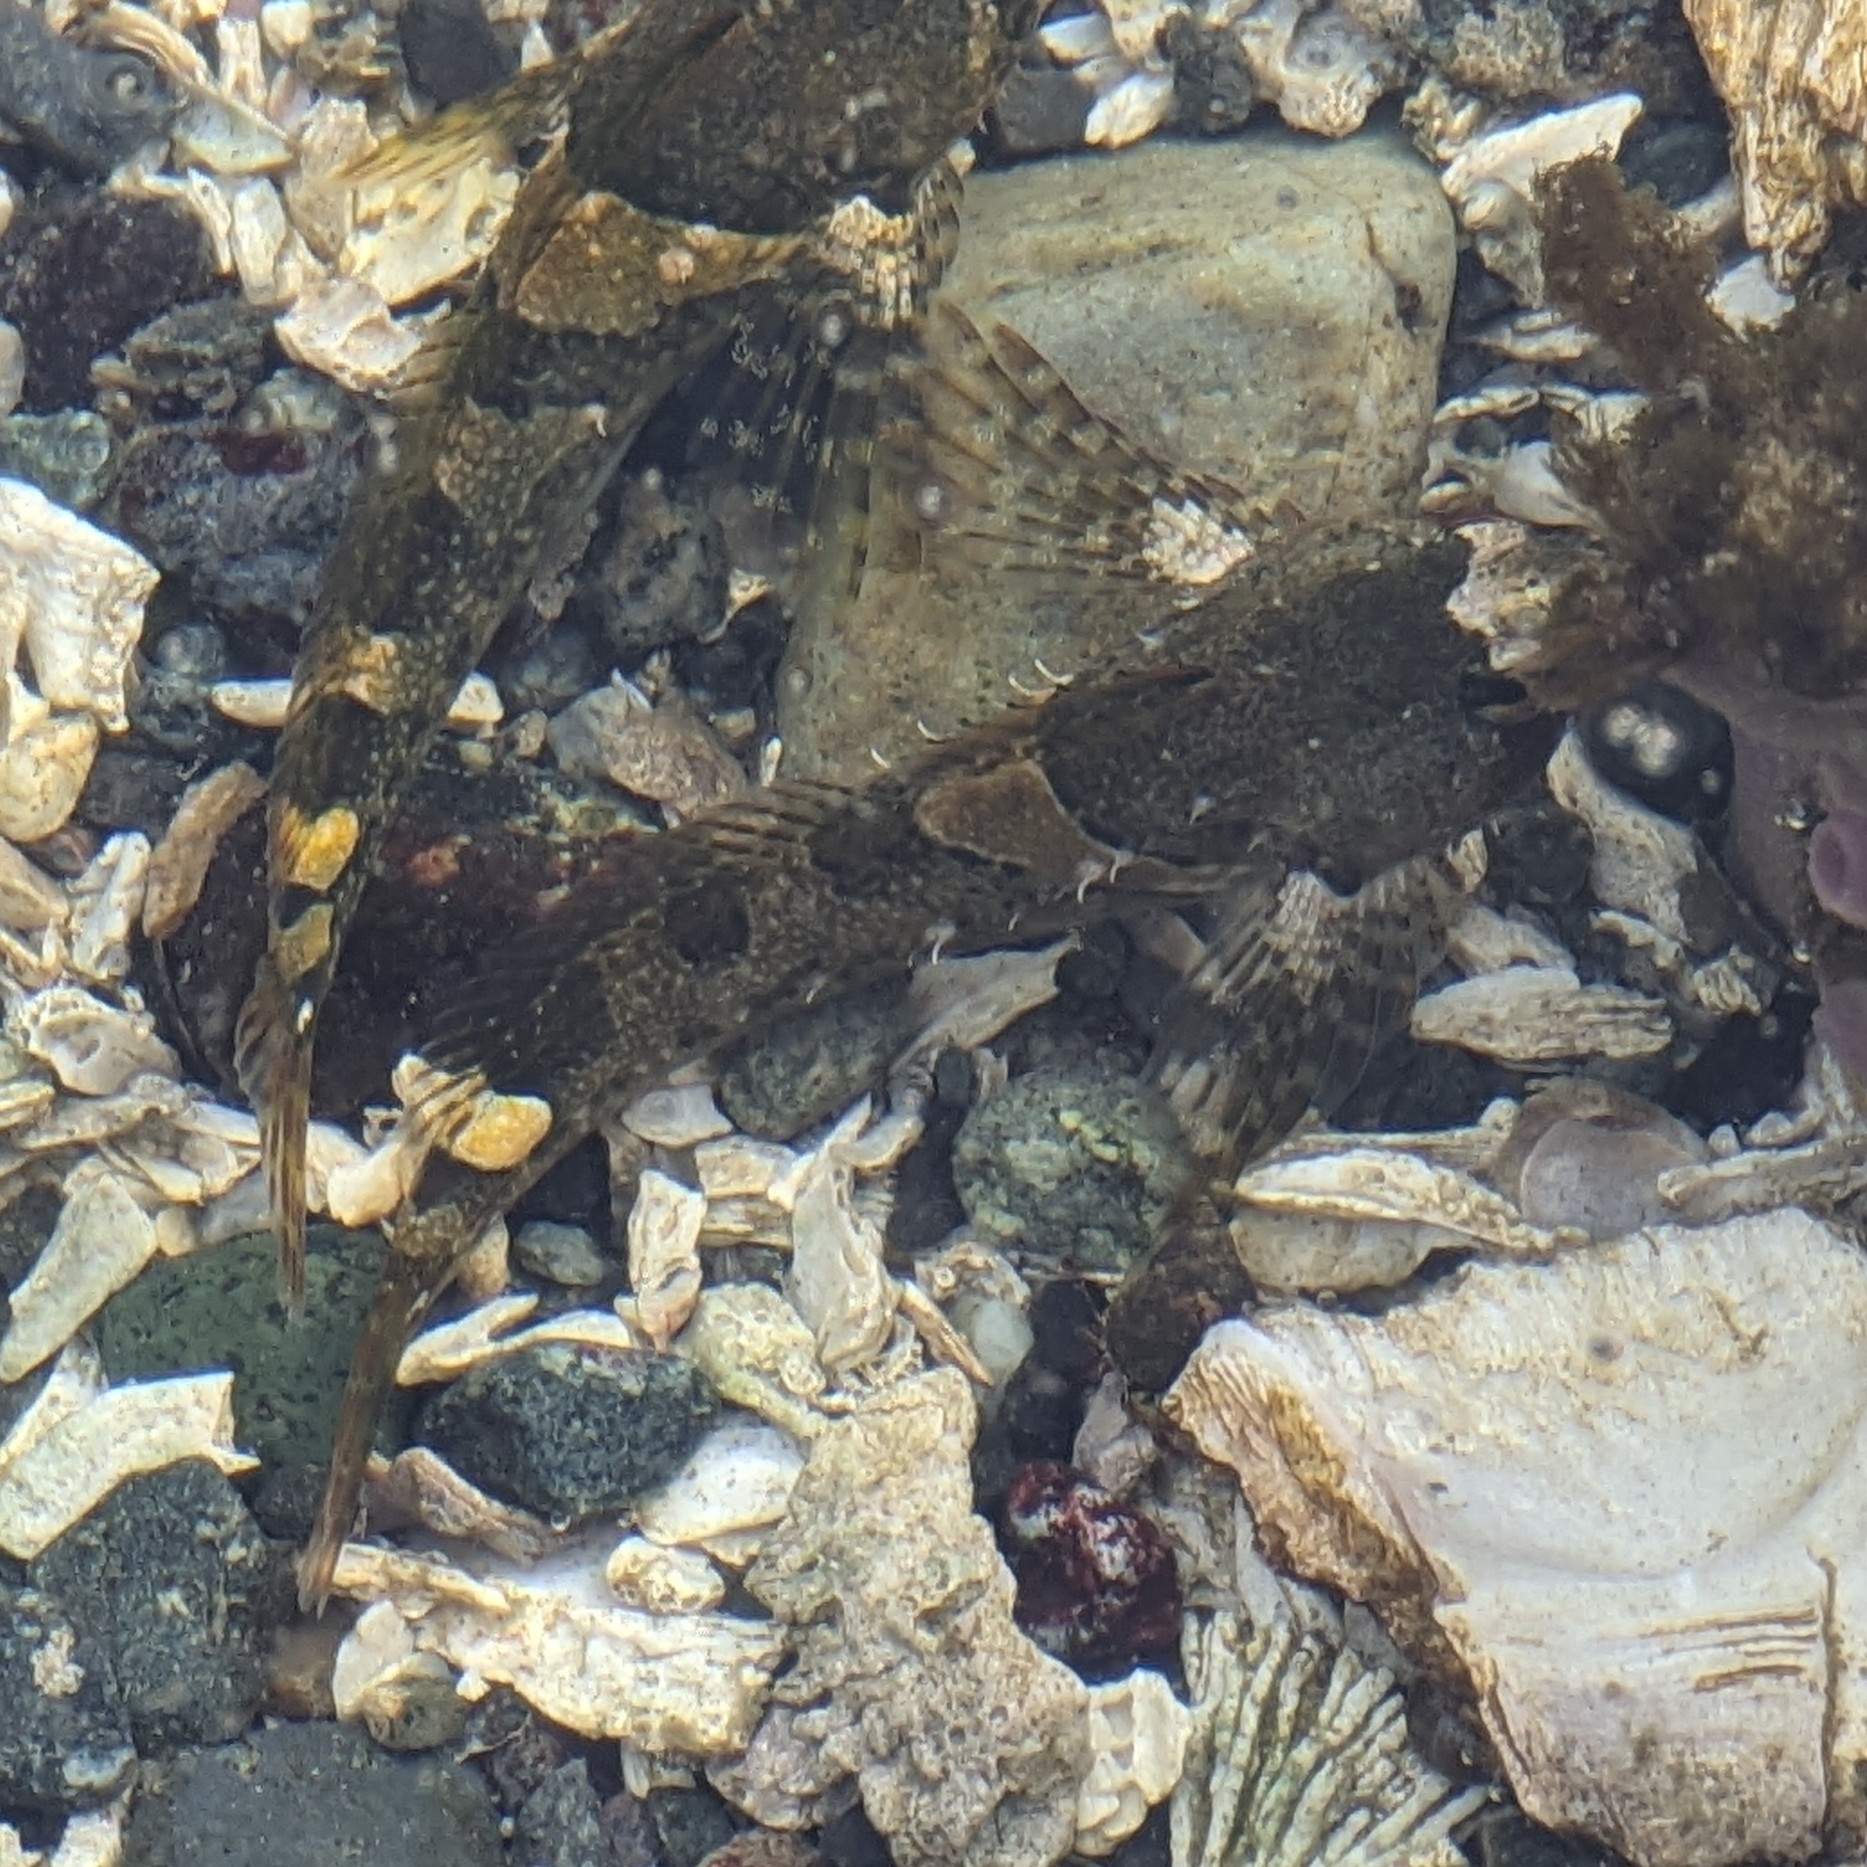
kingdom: Animalia
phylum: Chordata
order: Scorpaeniformes
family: Cottidae
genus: Oligocottus
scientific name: Oligocottus maculosus
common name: Tidepool sculpin
